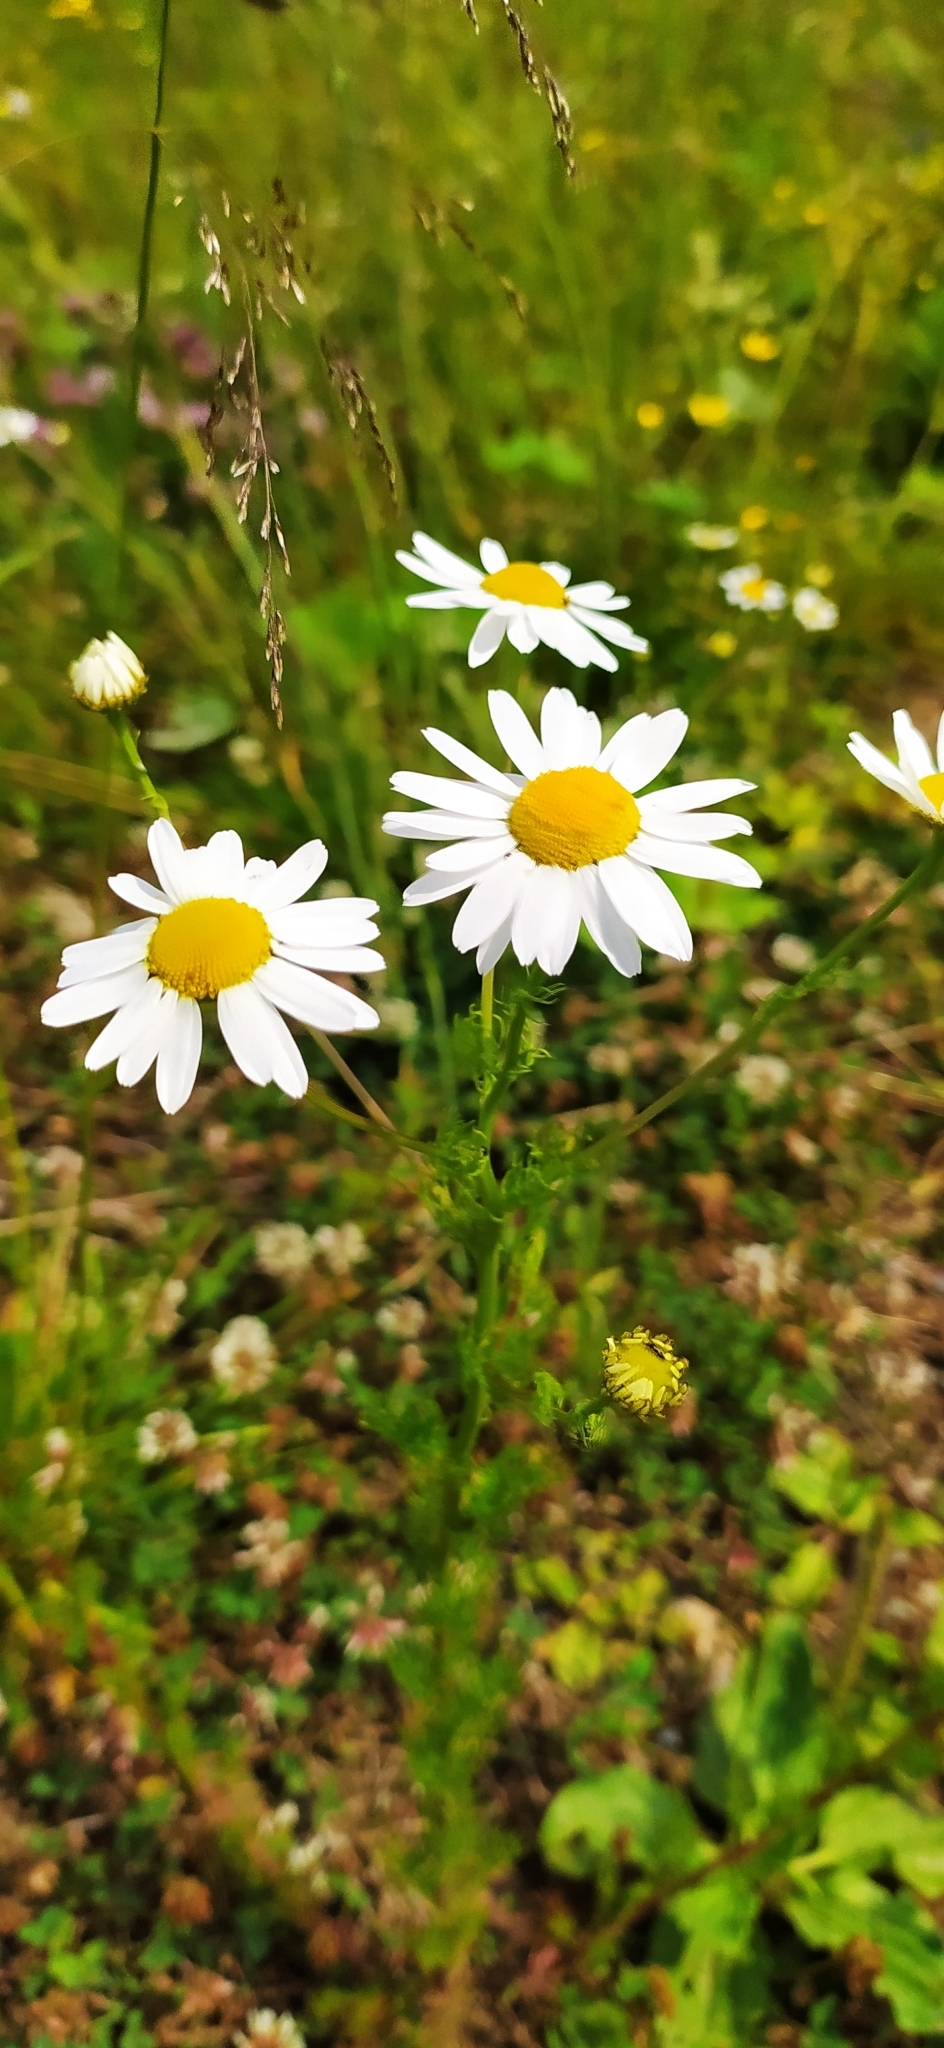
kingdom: Plantae
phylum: Tracheophyta
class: Magnoliopsida
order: Asterales
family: Asteraceae
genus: Tripleurospermum
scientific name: Tripleurospermum inodorum
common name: Scentless mayweed
